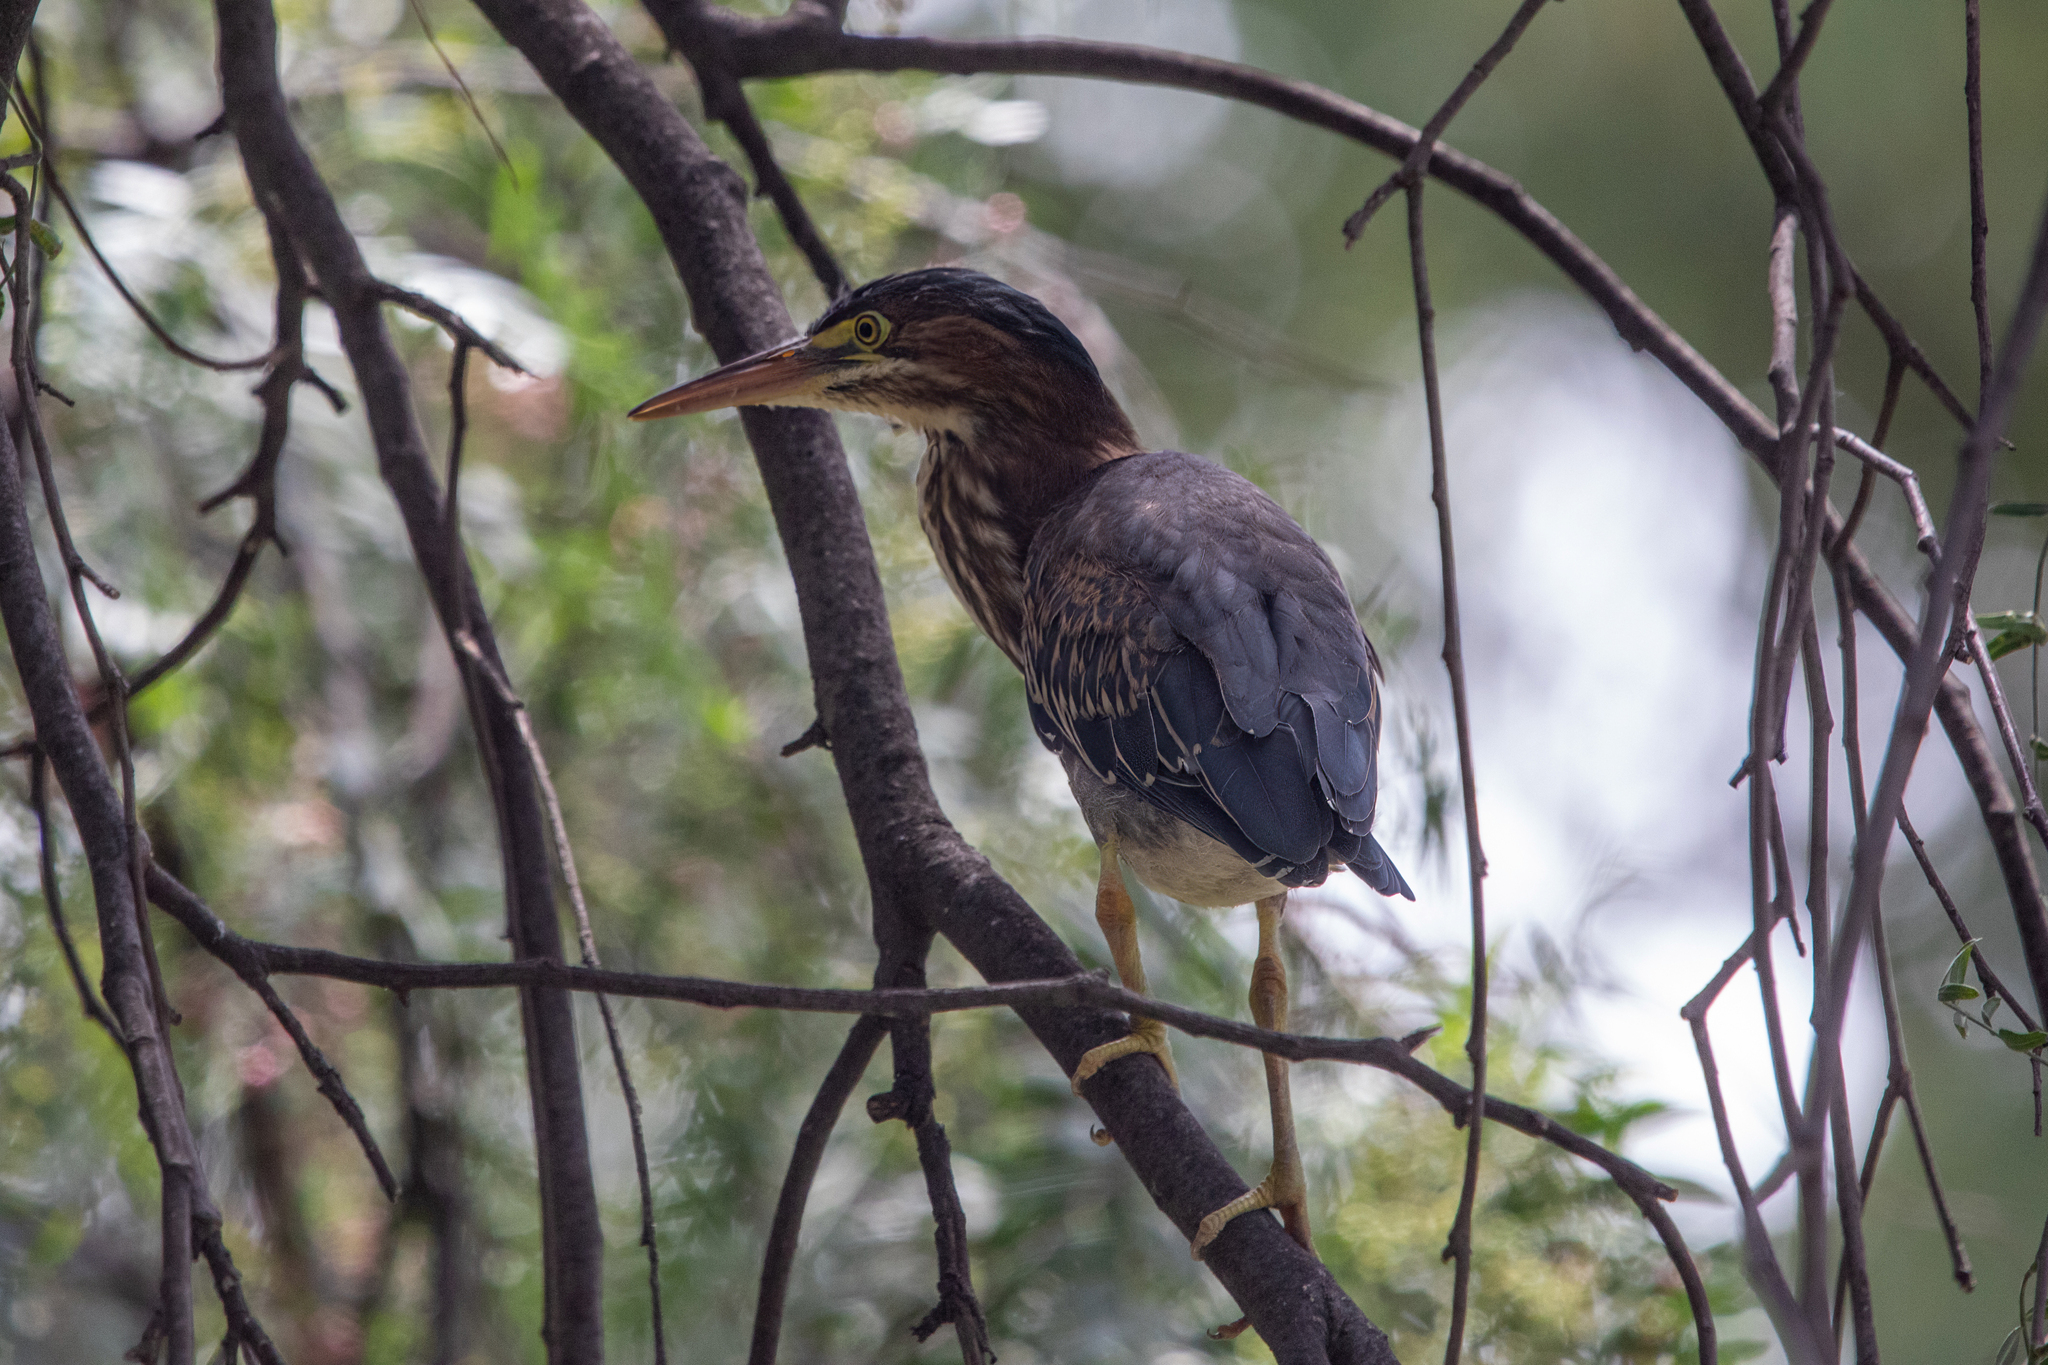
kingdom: Animalia
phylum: Chordata
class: Aves
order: Pelecaniformes
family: Ardeidae
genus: Butorides
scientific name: Butorides virescens
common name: Green heron
